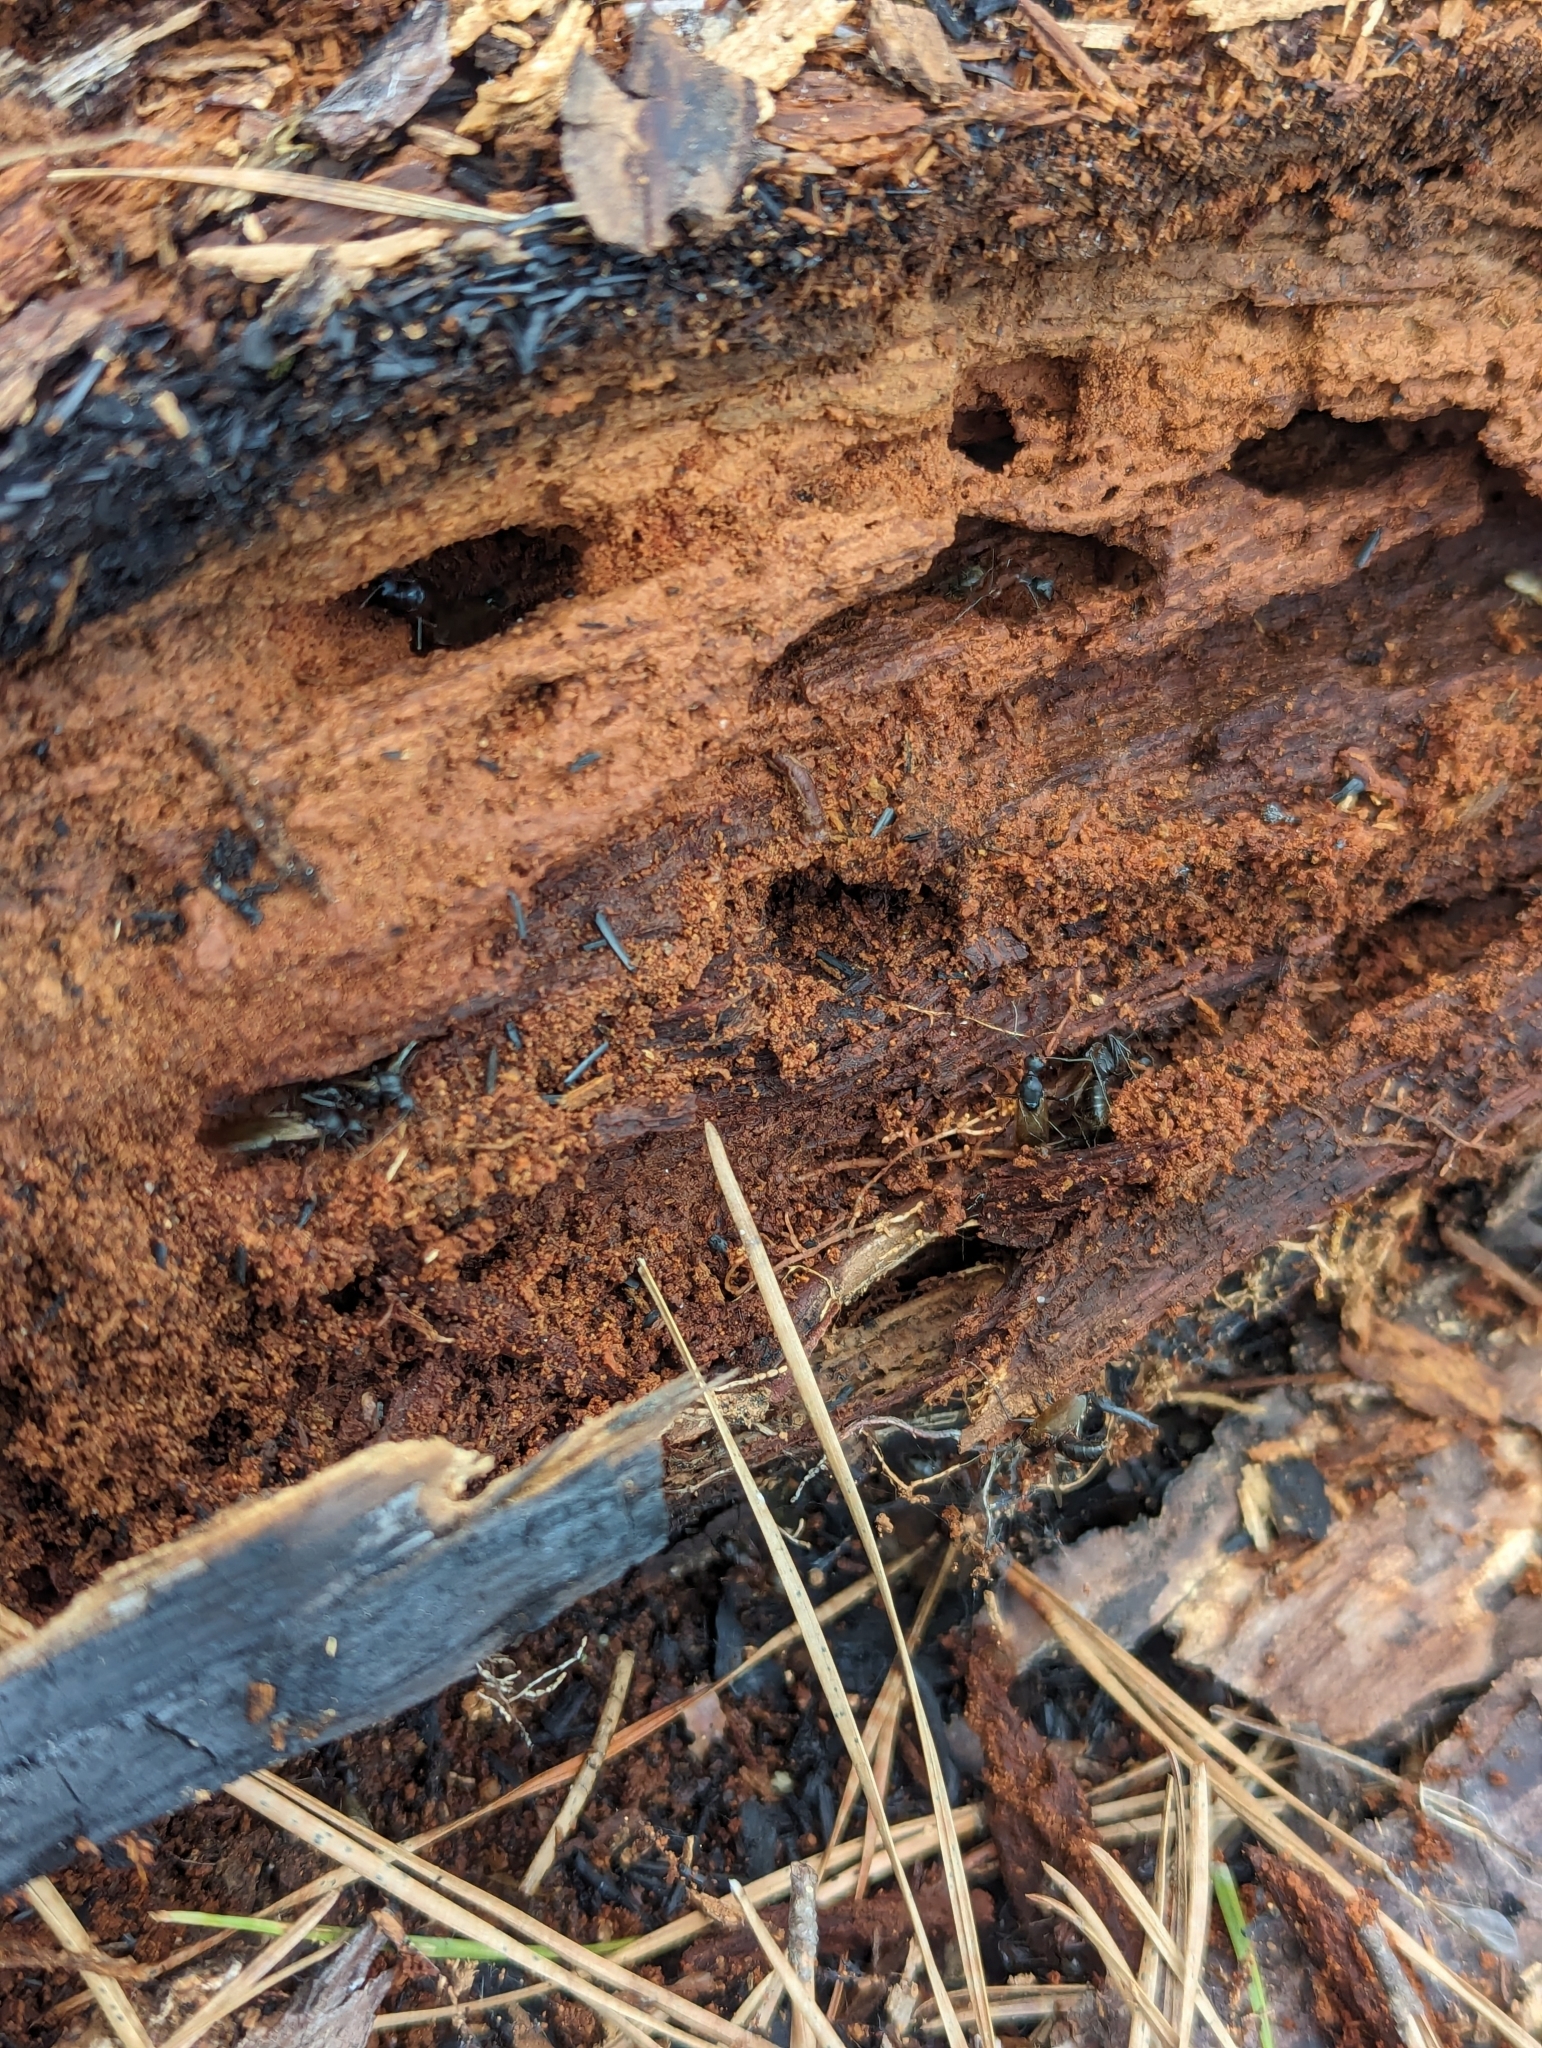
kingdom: Animalia
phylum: Arthropoda
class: Insecta
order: Hymenoptera
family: Formicidae
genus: Camponotus
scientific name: Camponotus chromaiodes
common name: Red carpenter ant
